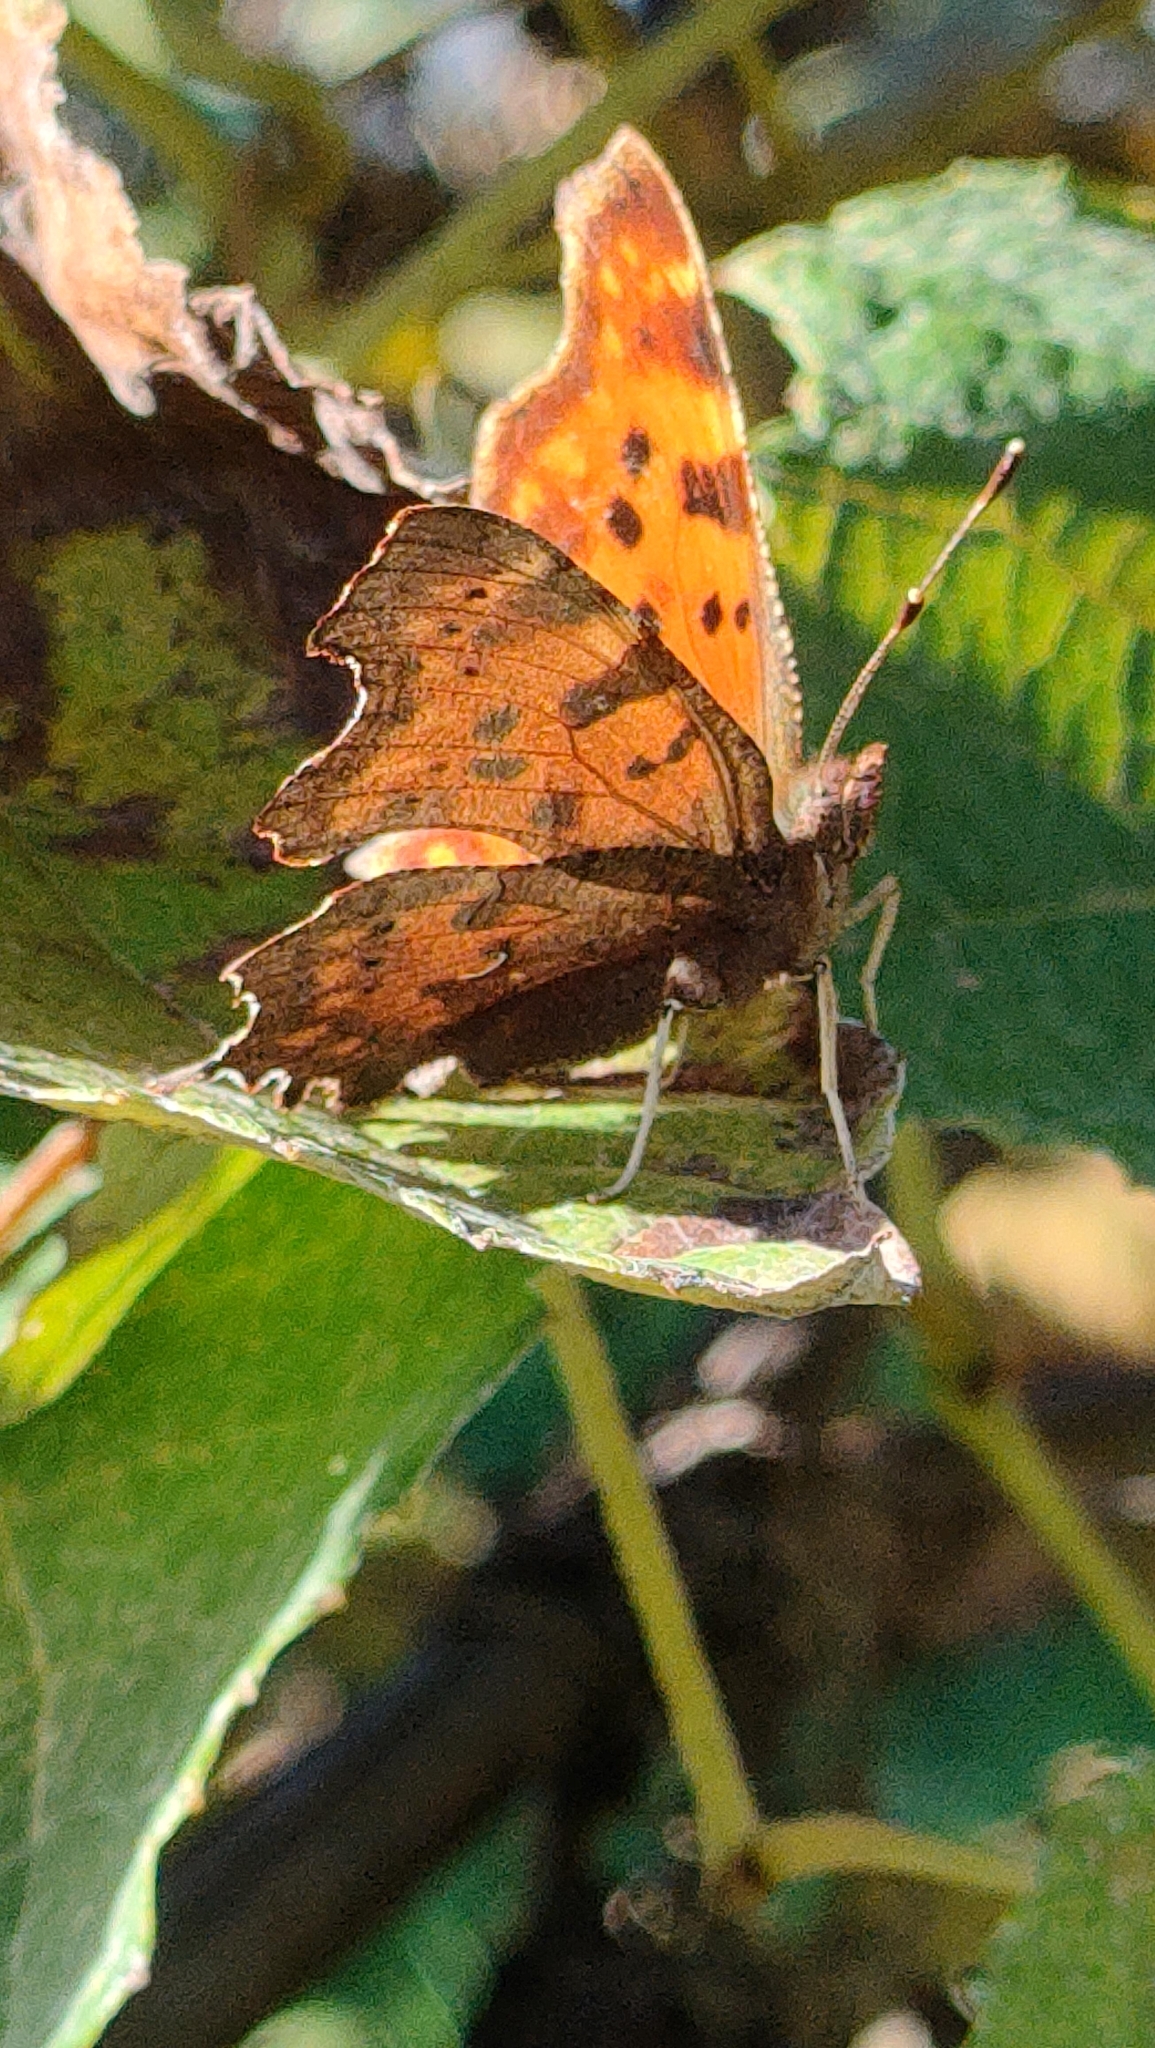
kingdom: Animalia
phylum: Arthropoda
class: Insecta
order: Lepidoptera
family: Nymphalidae
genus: Polygonia
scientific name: Polygonia c-album
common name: Comma
